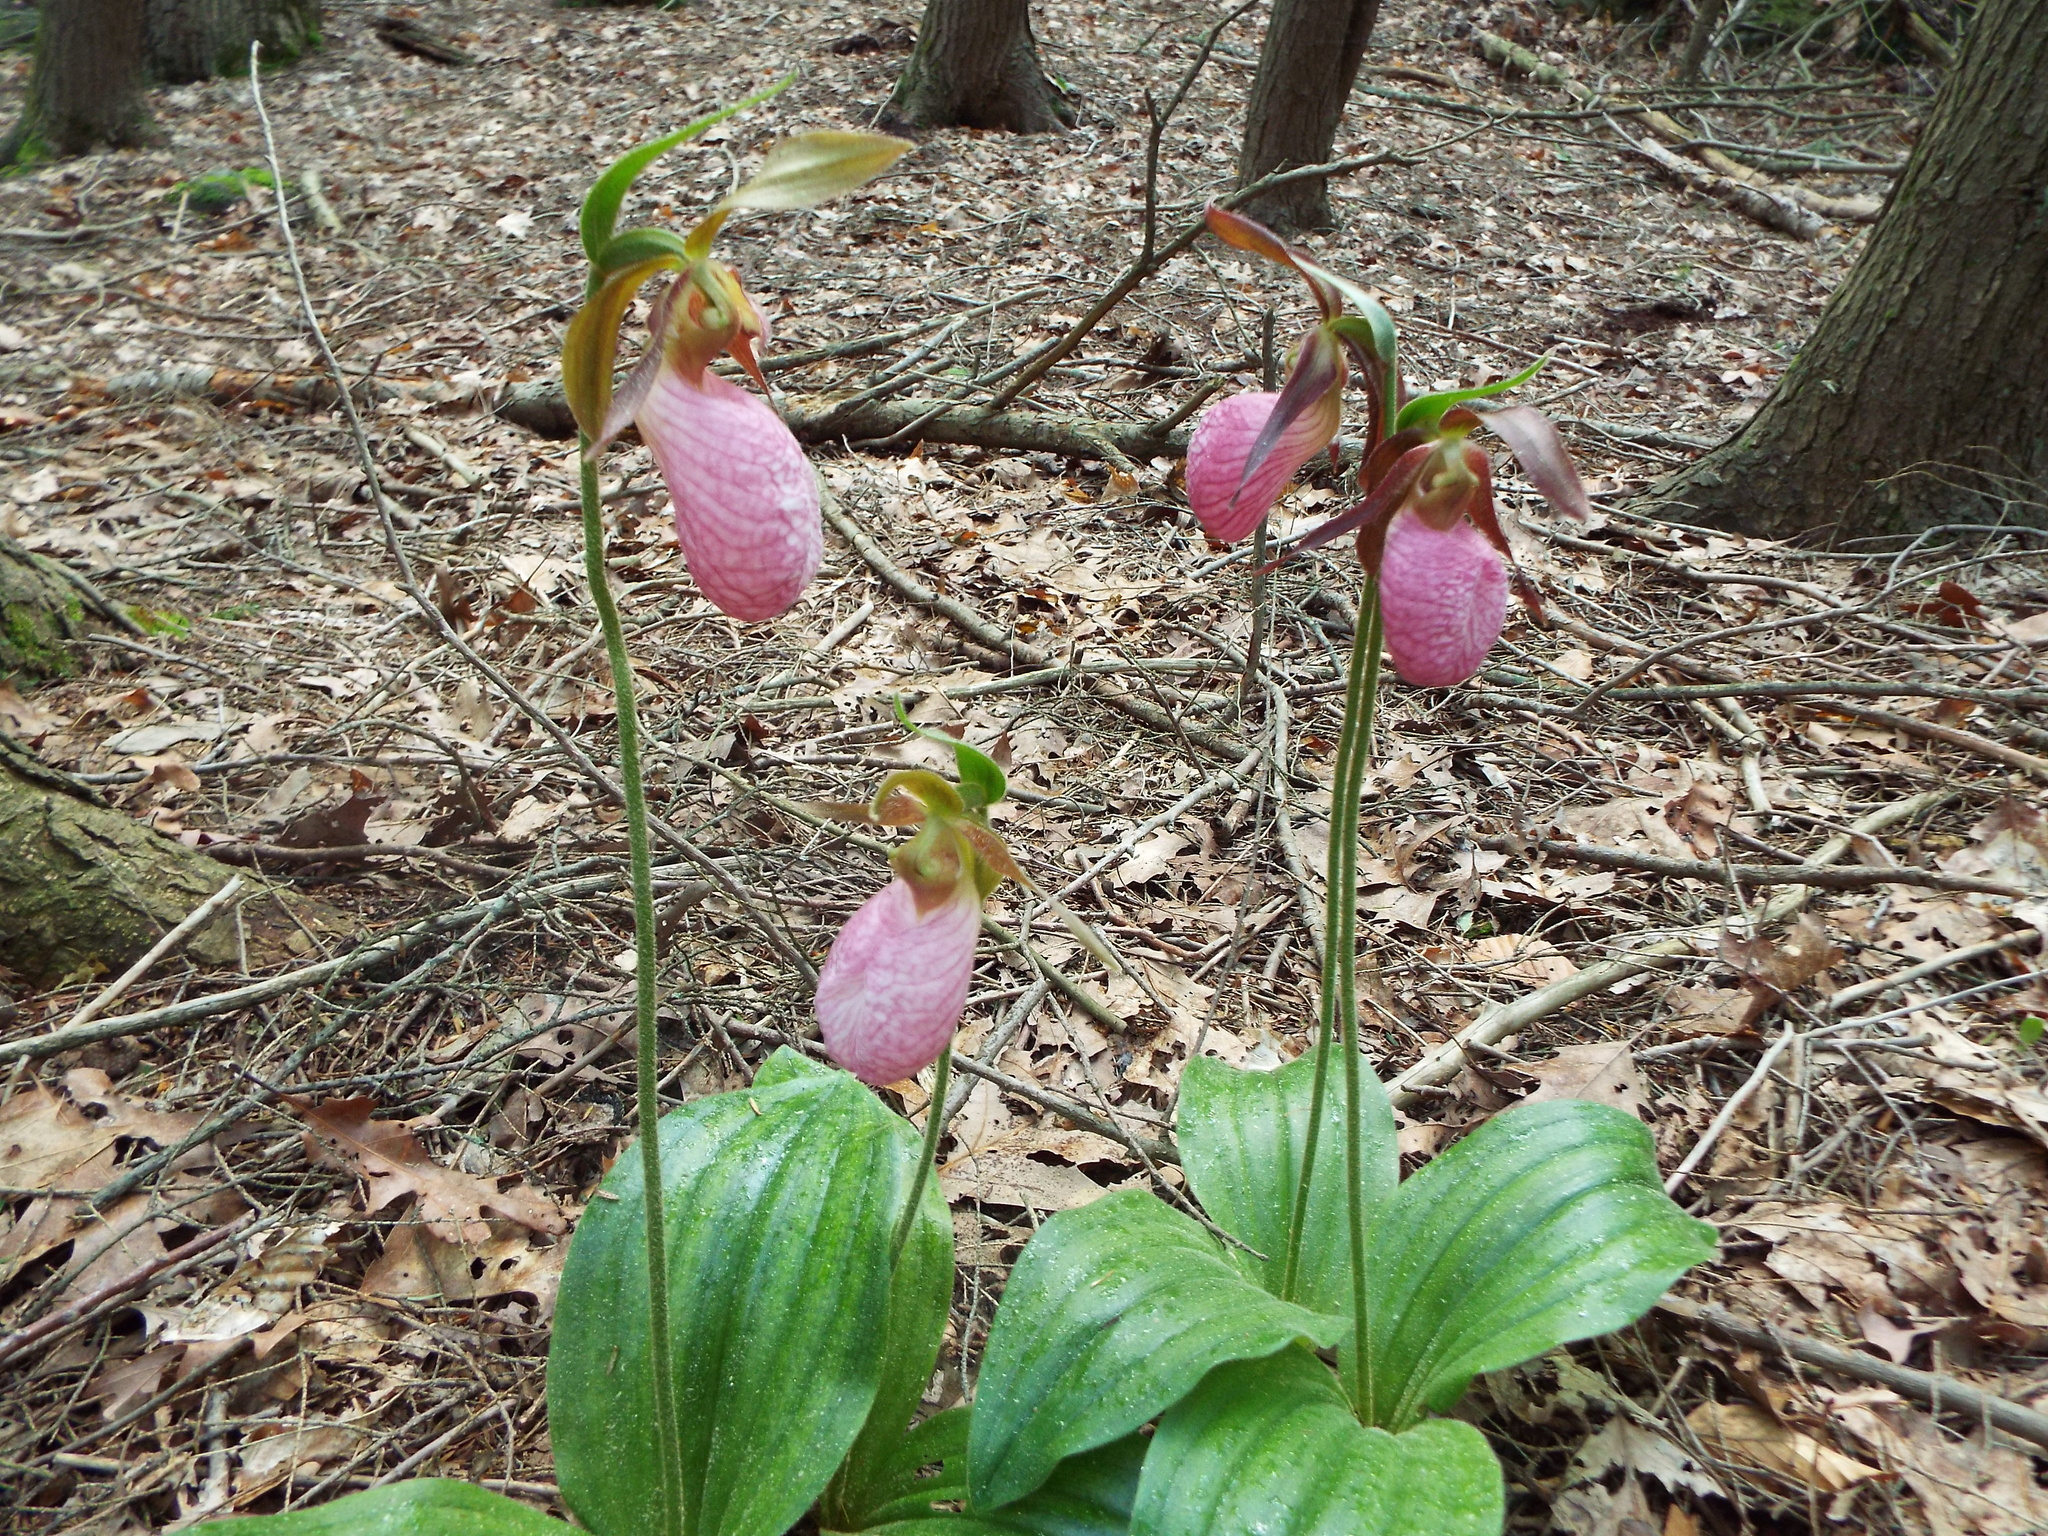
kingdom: Plantae
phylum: Tracheophyta
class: Liliopsida
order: Asparagales
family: Orchidaceae
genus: Cypripedium
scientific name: Cypripedium acaule
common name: Pink lady's-slipper
